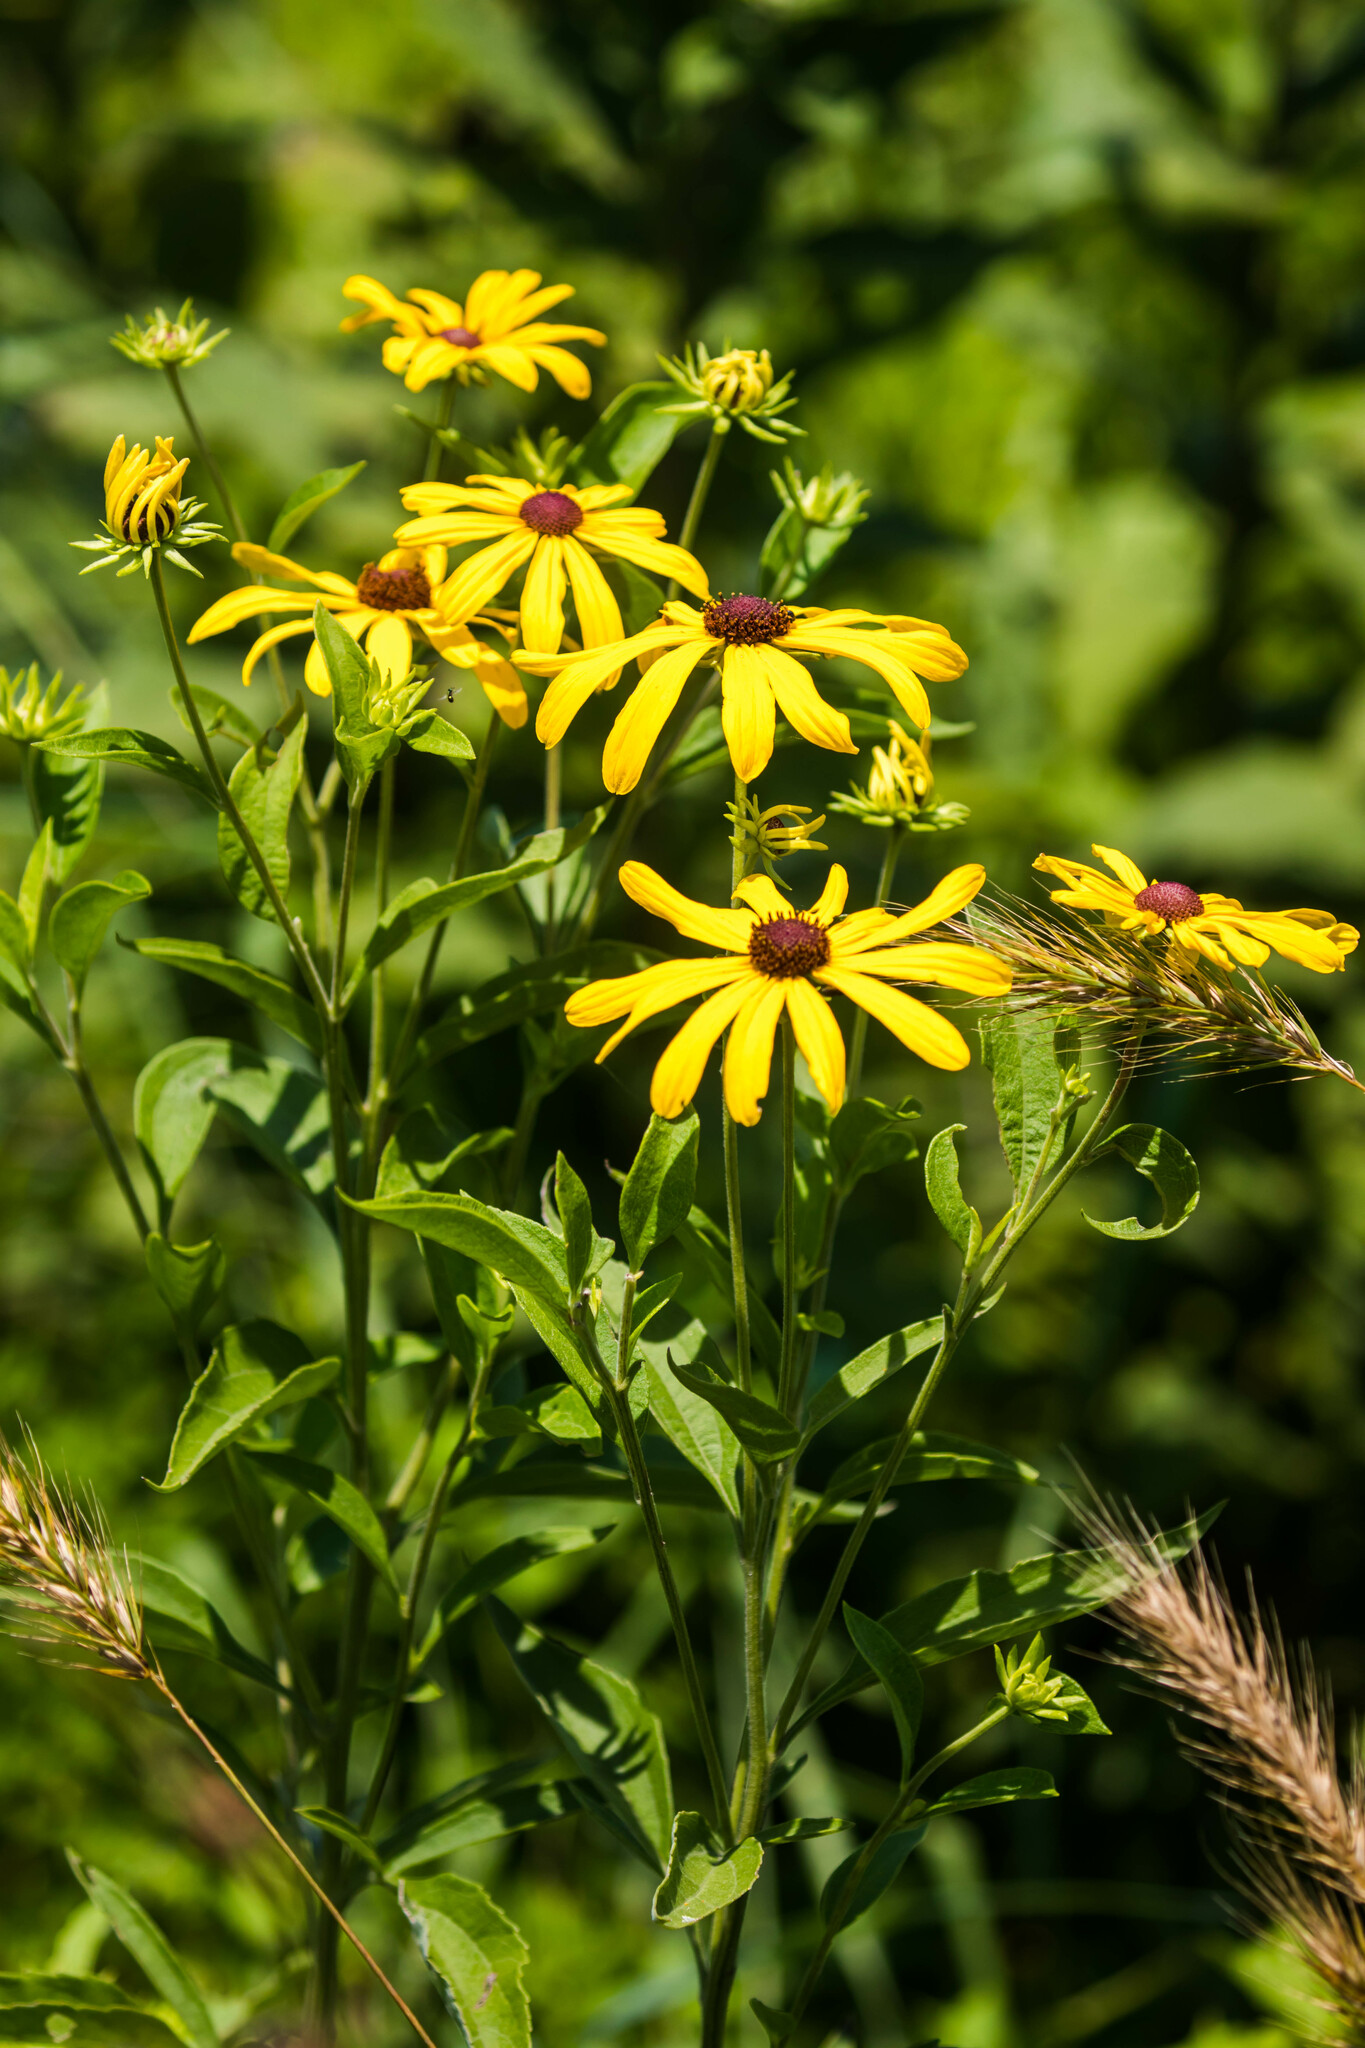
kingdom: Plantae
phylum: Tracheophyta
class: Magnoliopsida
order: Asterales
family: Asteraceae
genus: Rudbeckia
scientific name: Rudbeckia subtomentosa
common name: Sweet coneflower
